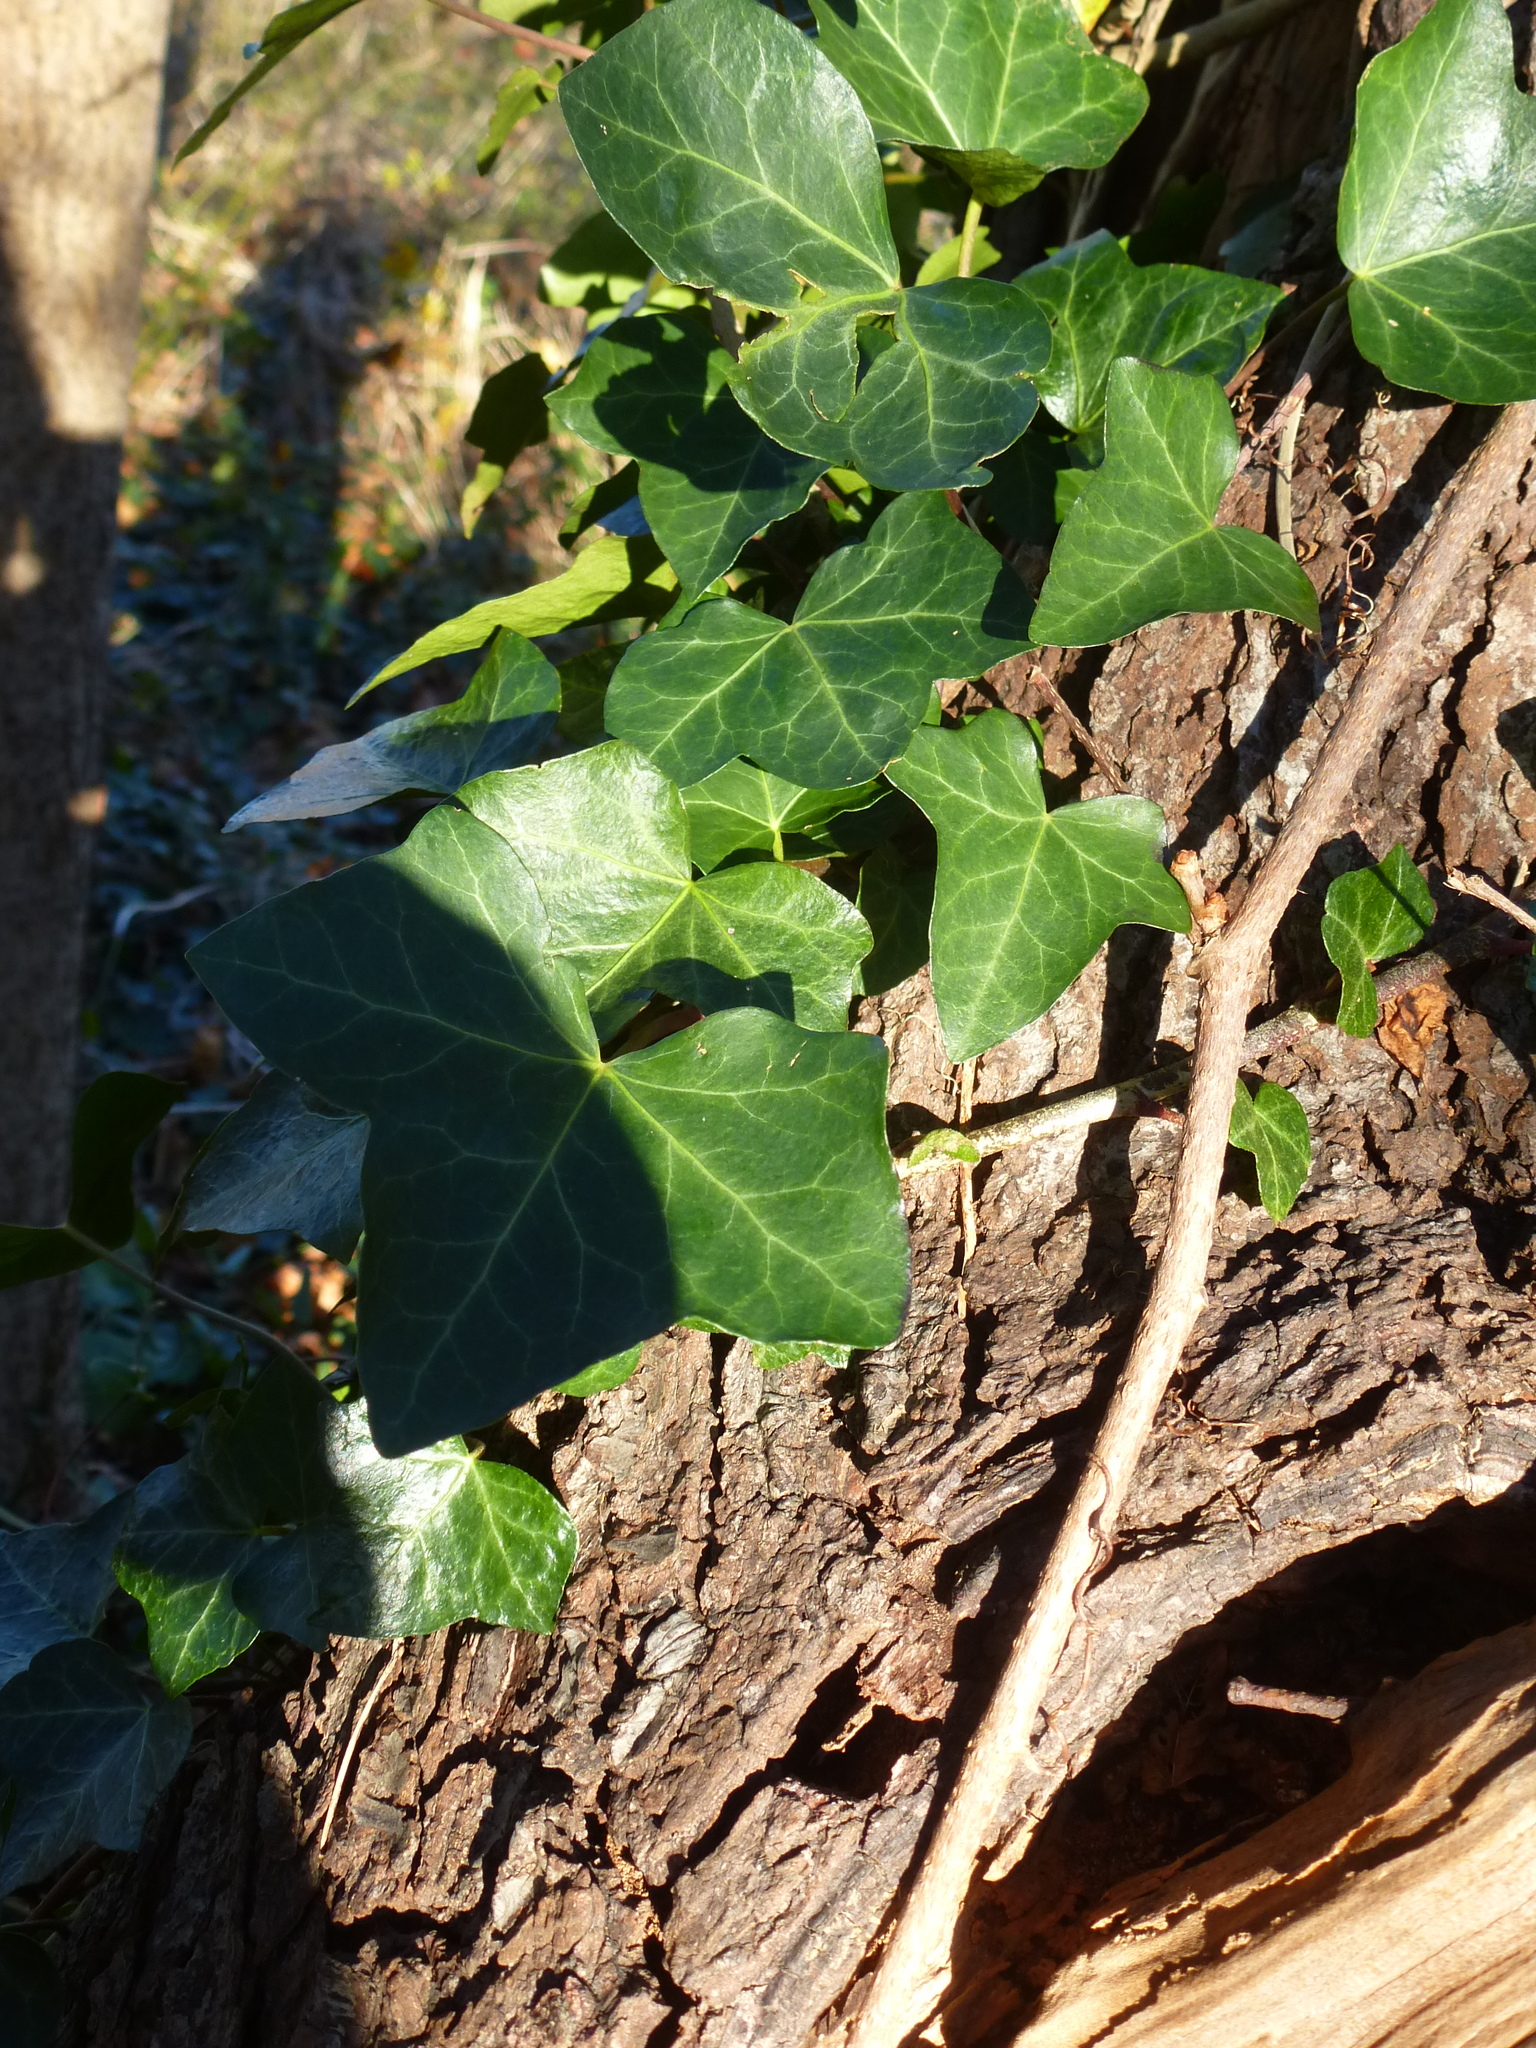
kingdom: Plantae
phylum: Tracheophyta
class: Magnoliopsida
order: Apiales
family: Araliaceae
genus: Hedera
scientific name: Hedera helix
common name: Ivy
